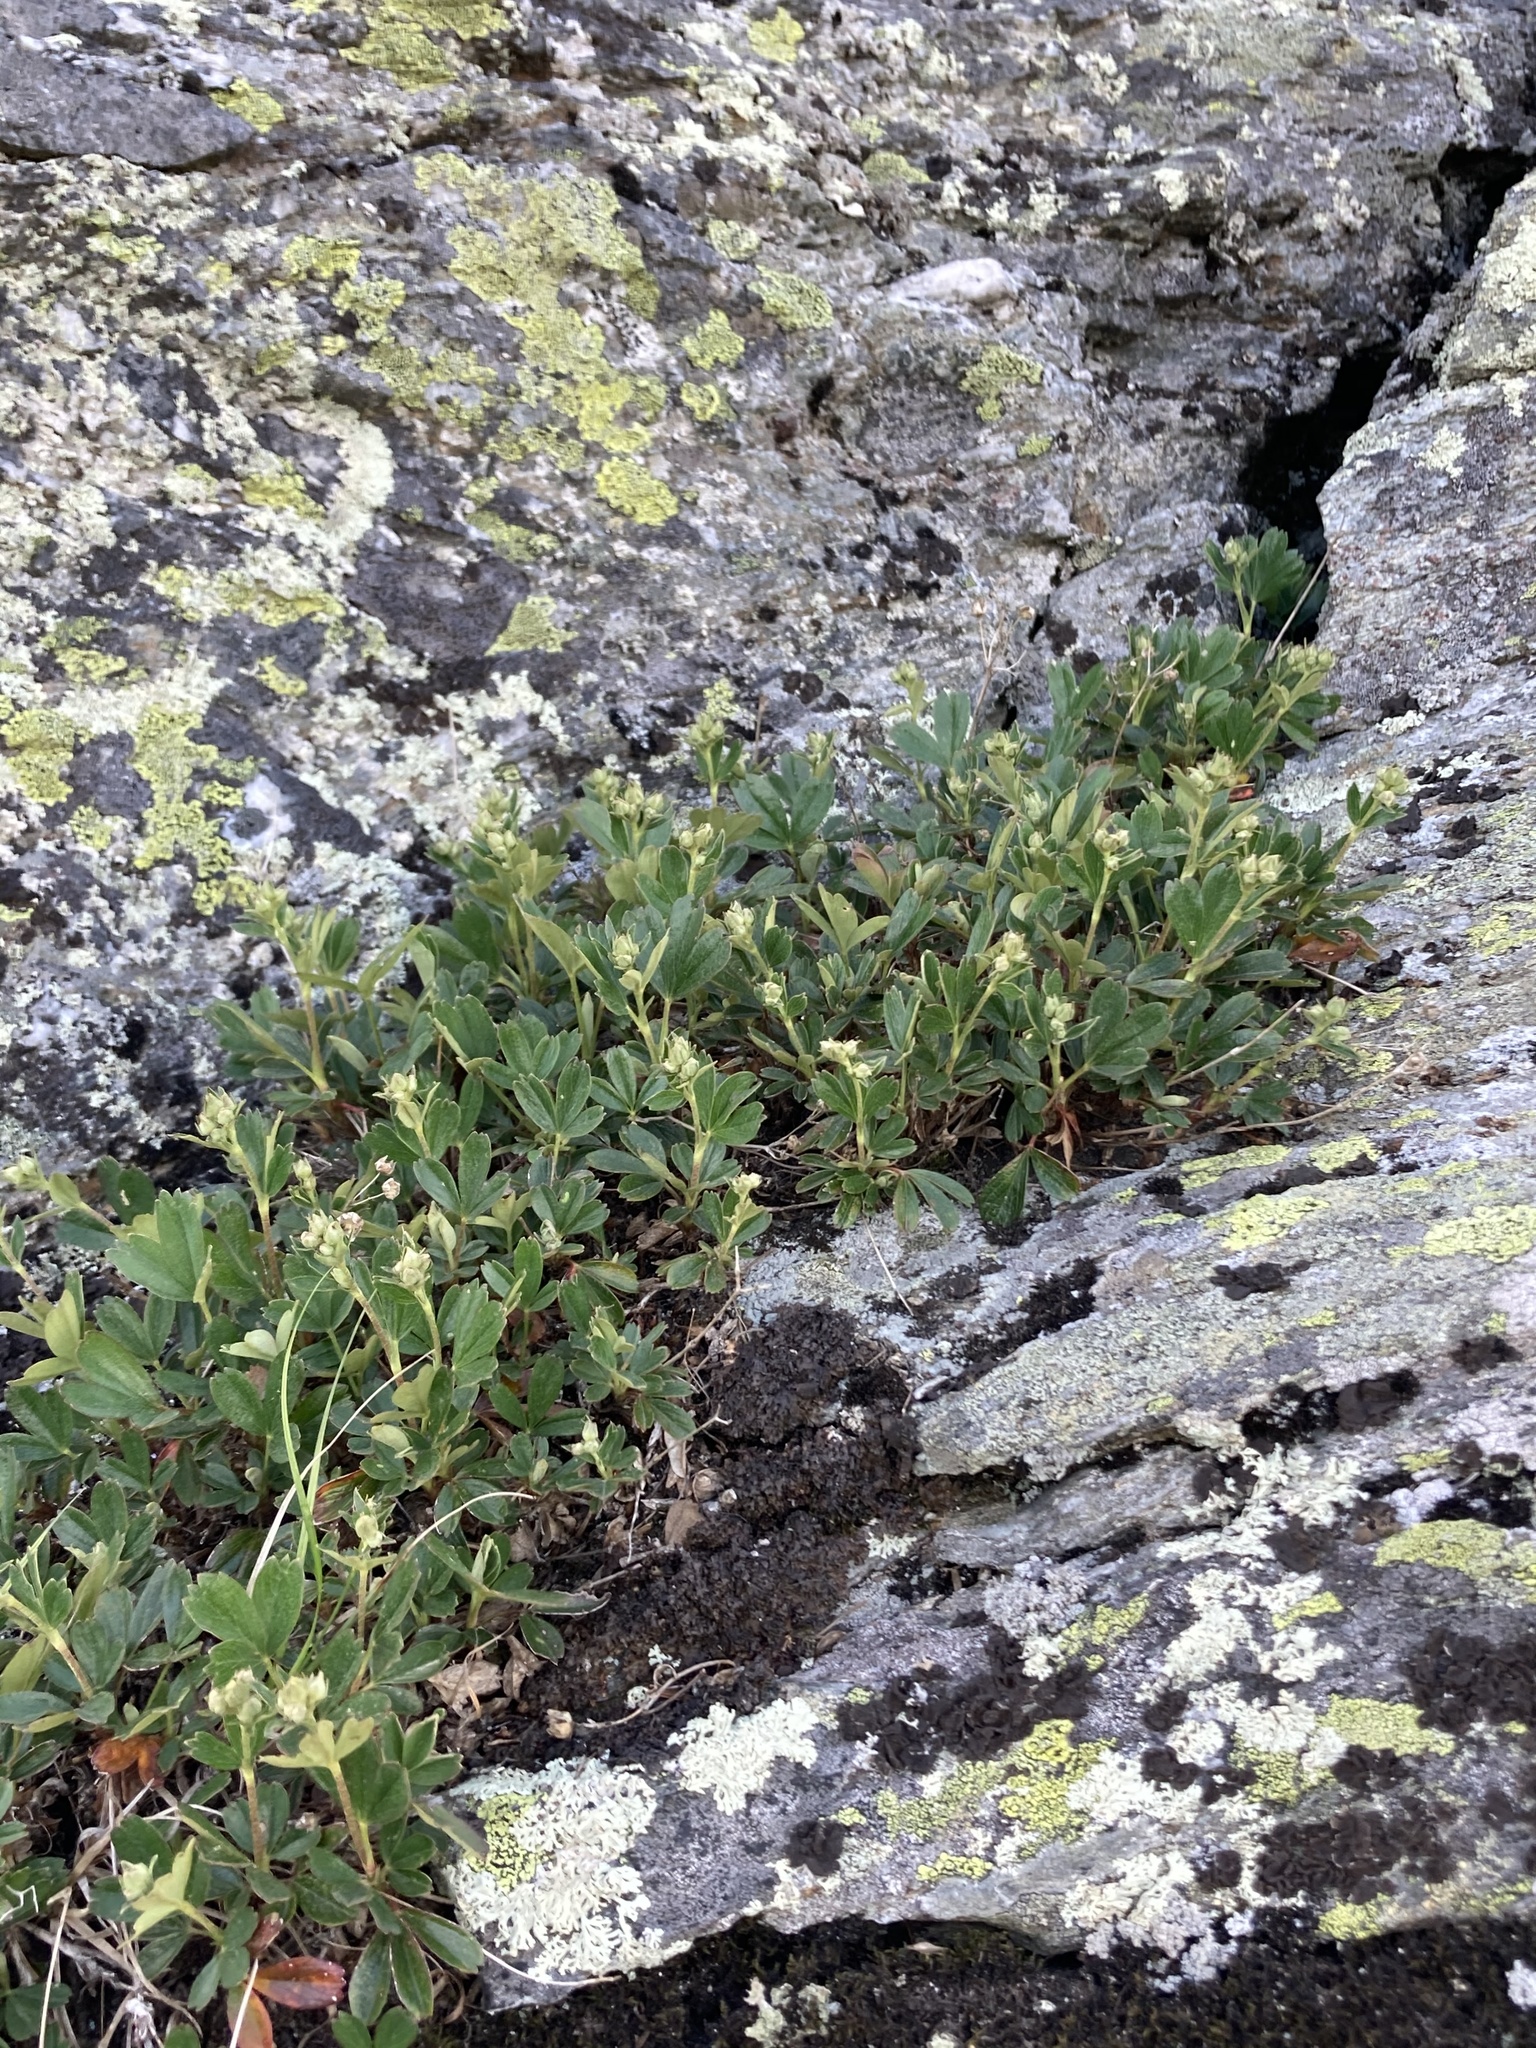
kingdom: Plantae
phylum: Tracheophyta
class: Magnoliopsida
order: Rosales
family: Rosaceae
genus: Sibbaldia
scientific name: Sibbaldia tridentata
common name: Three-toothed cinquefoil
